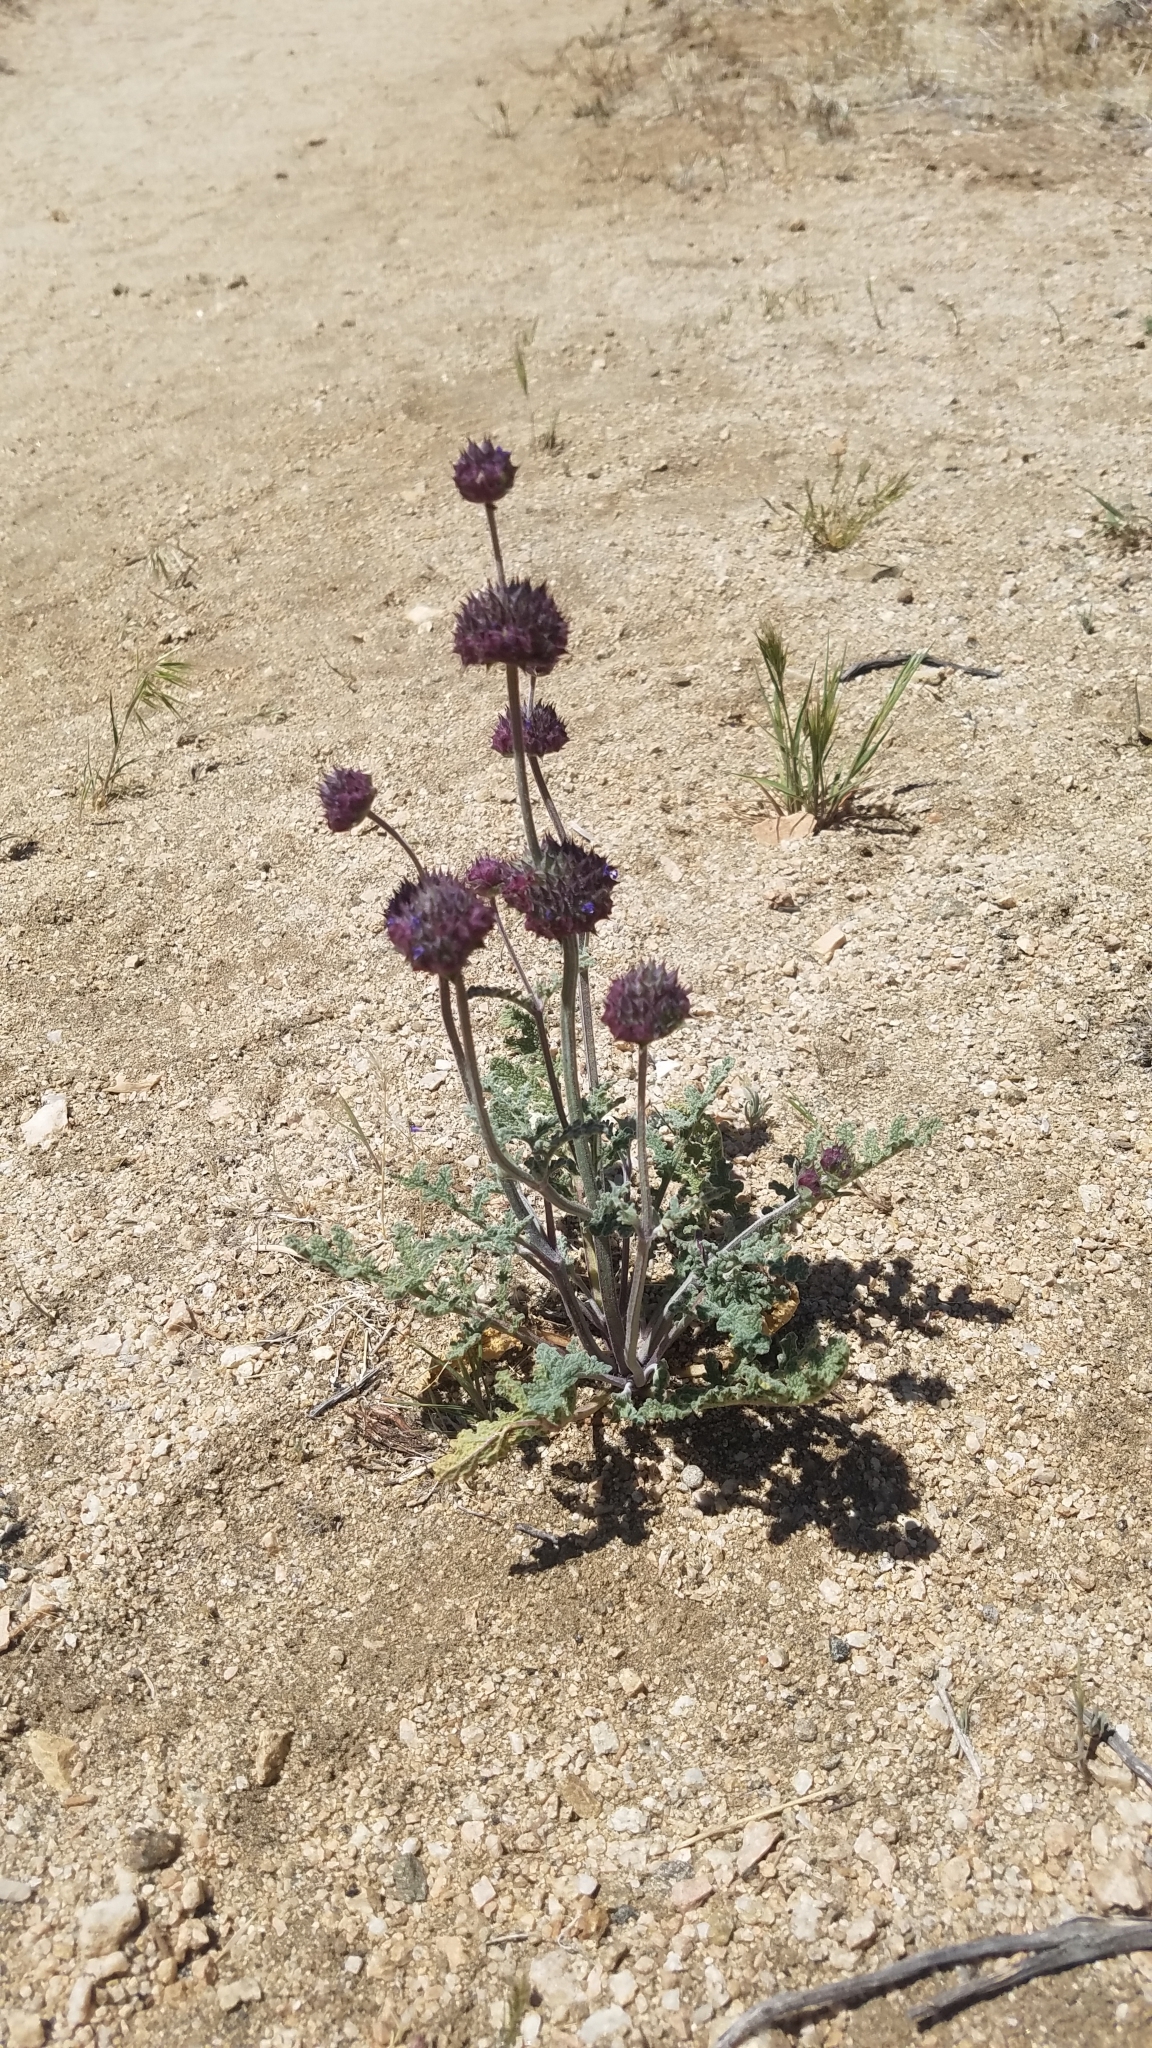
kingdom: Plantae
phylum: Tracheophyta
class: Magnoliopsida
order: Lamiales
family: Lamiaceae
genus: Salvia
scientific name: Salvia columbariae
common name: Chia
